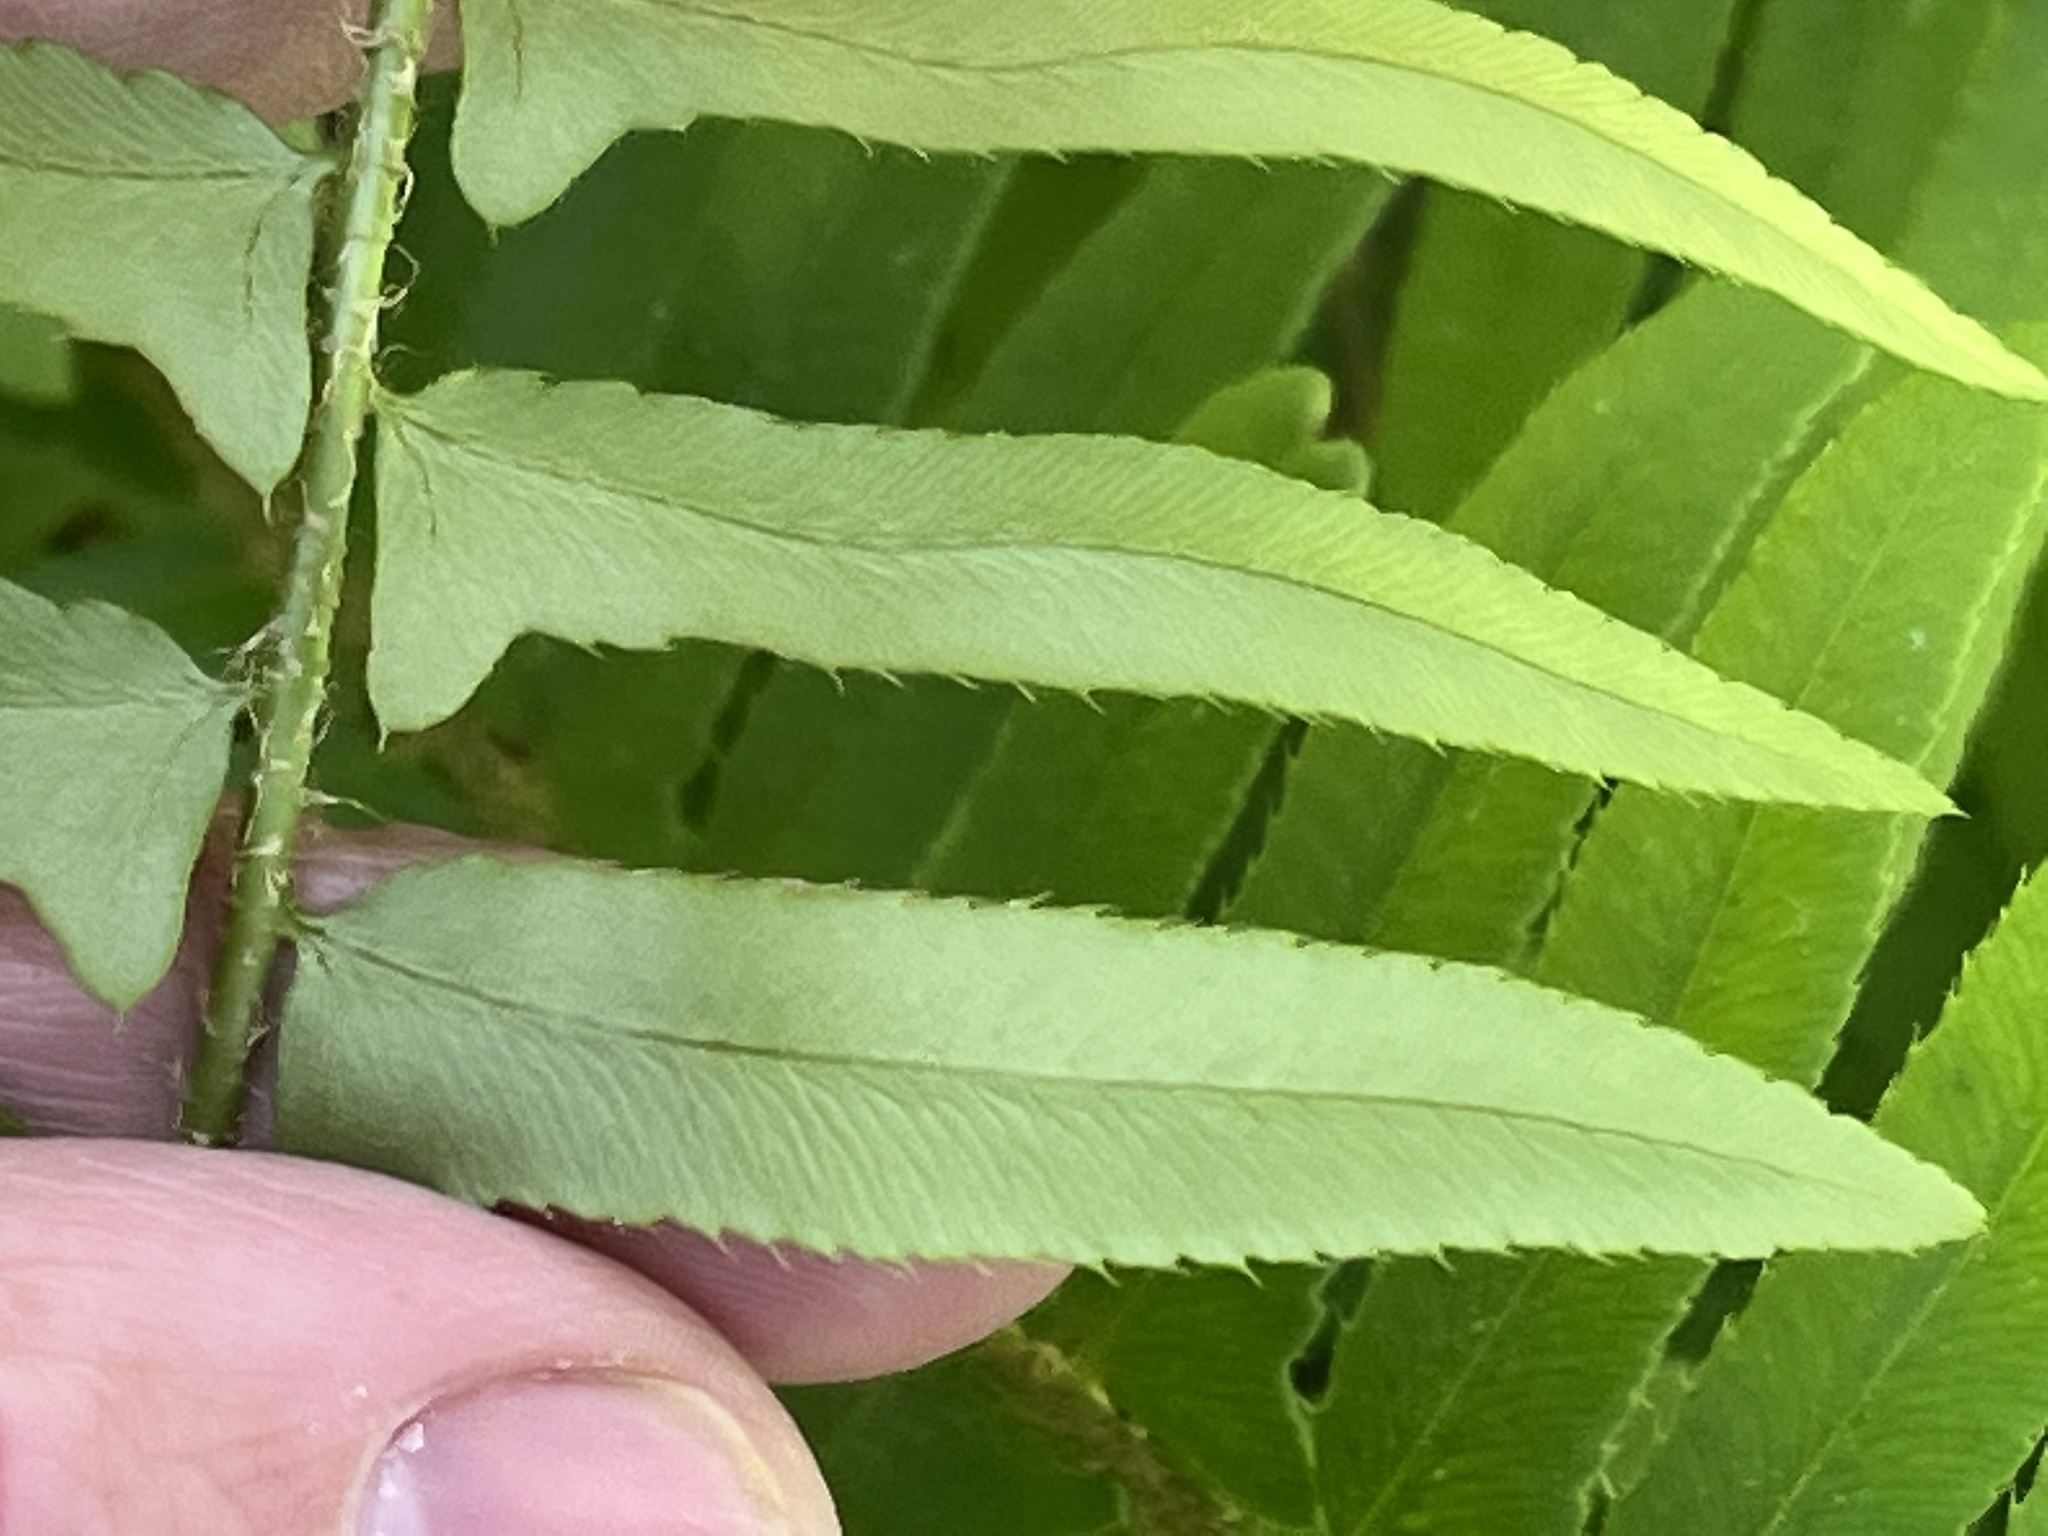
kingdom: Plantae
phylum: Tracheophyta
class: Polypodiopsida
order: Polypodiales
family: Dryopteridaceae
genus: Polystichum
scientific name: Polystichum acrostichoides
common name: Christmas fern
